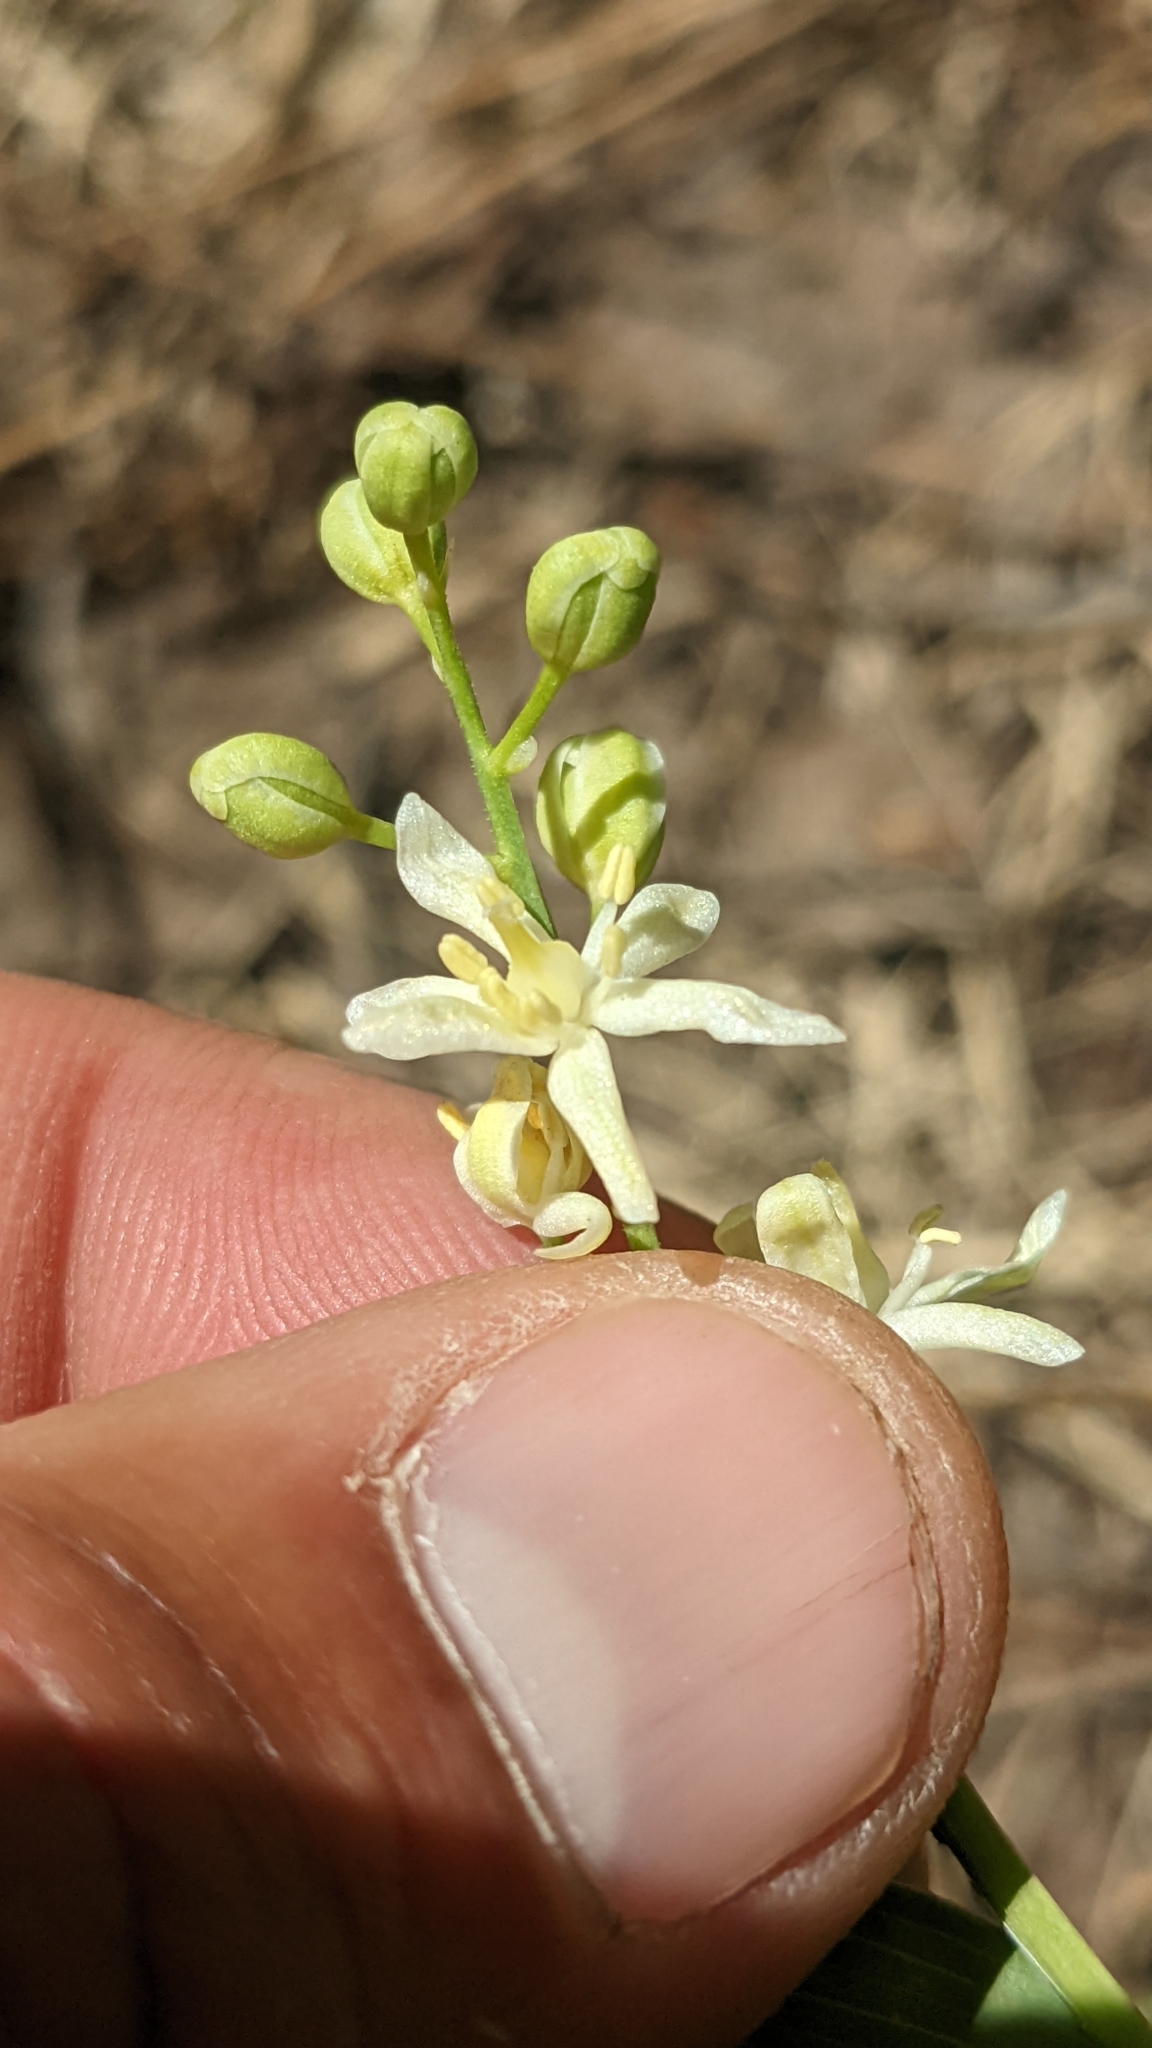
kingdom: Plantae
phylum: Tracheophyta
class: Liliopsida
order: Asparagales
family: Asparagaceae
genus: Maianthemum
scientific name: Maianthemum stellatum
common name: Little false solomon's seal
